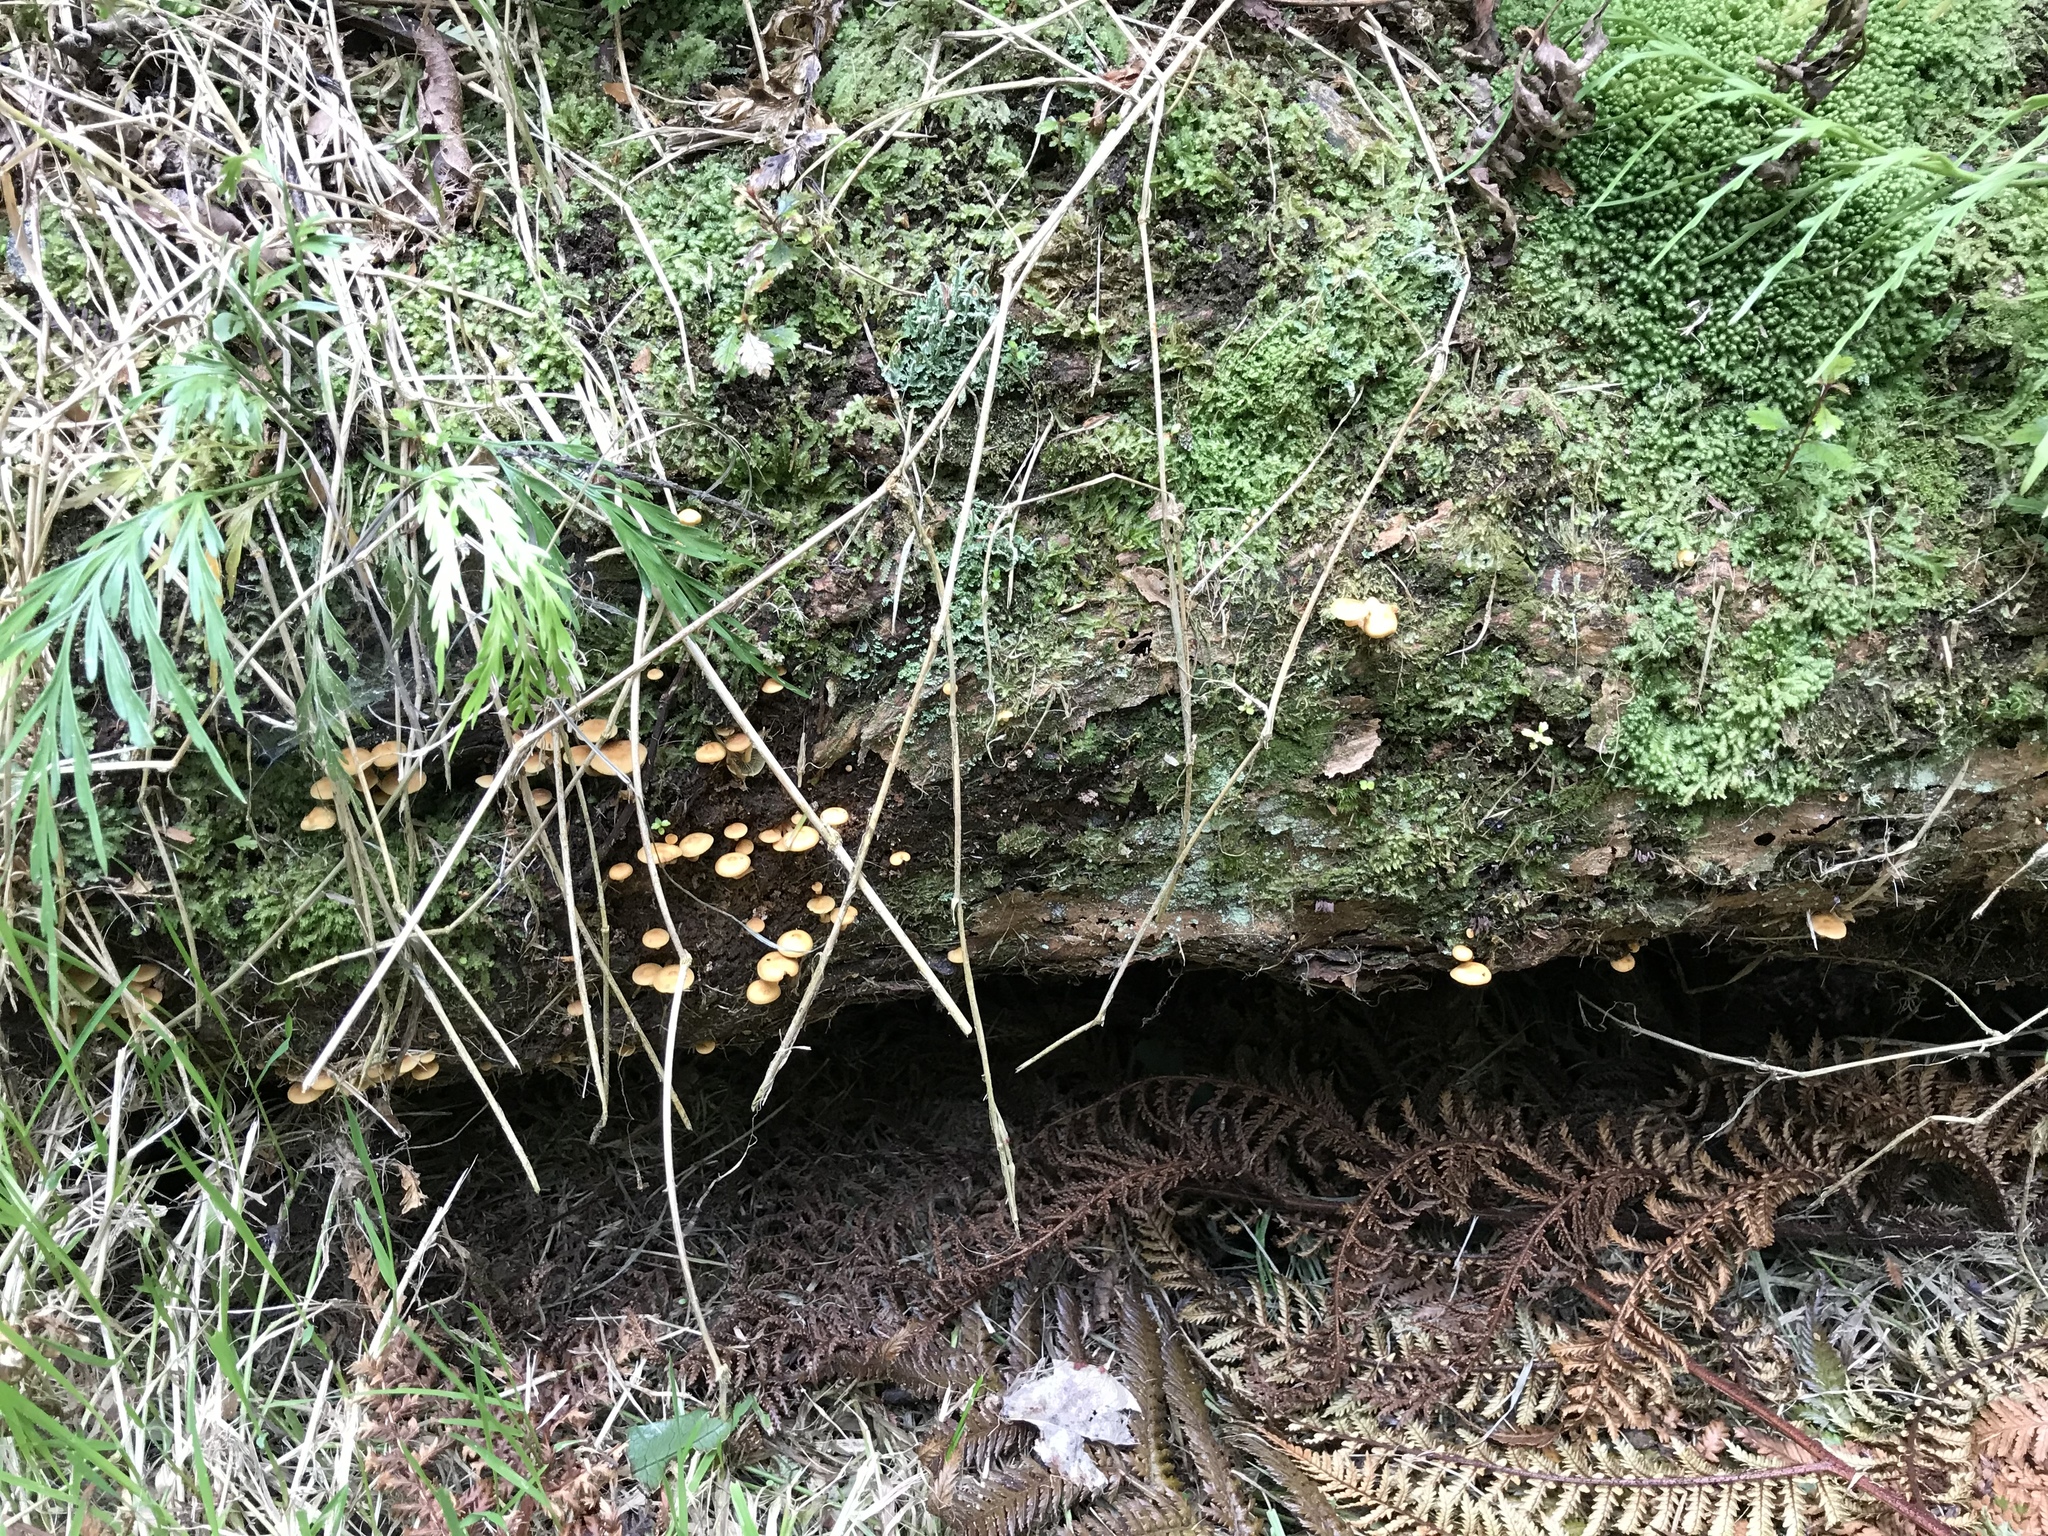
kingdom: Fungi
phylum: Basidiomycota
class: Agaricomycetes
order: Agaricales
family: Strophariaceae
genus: Hypholoma
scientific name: Hypholoma acutum
